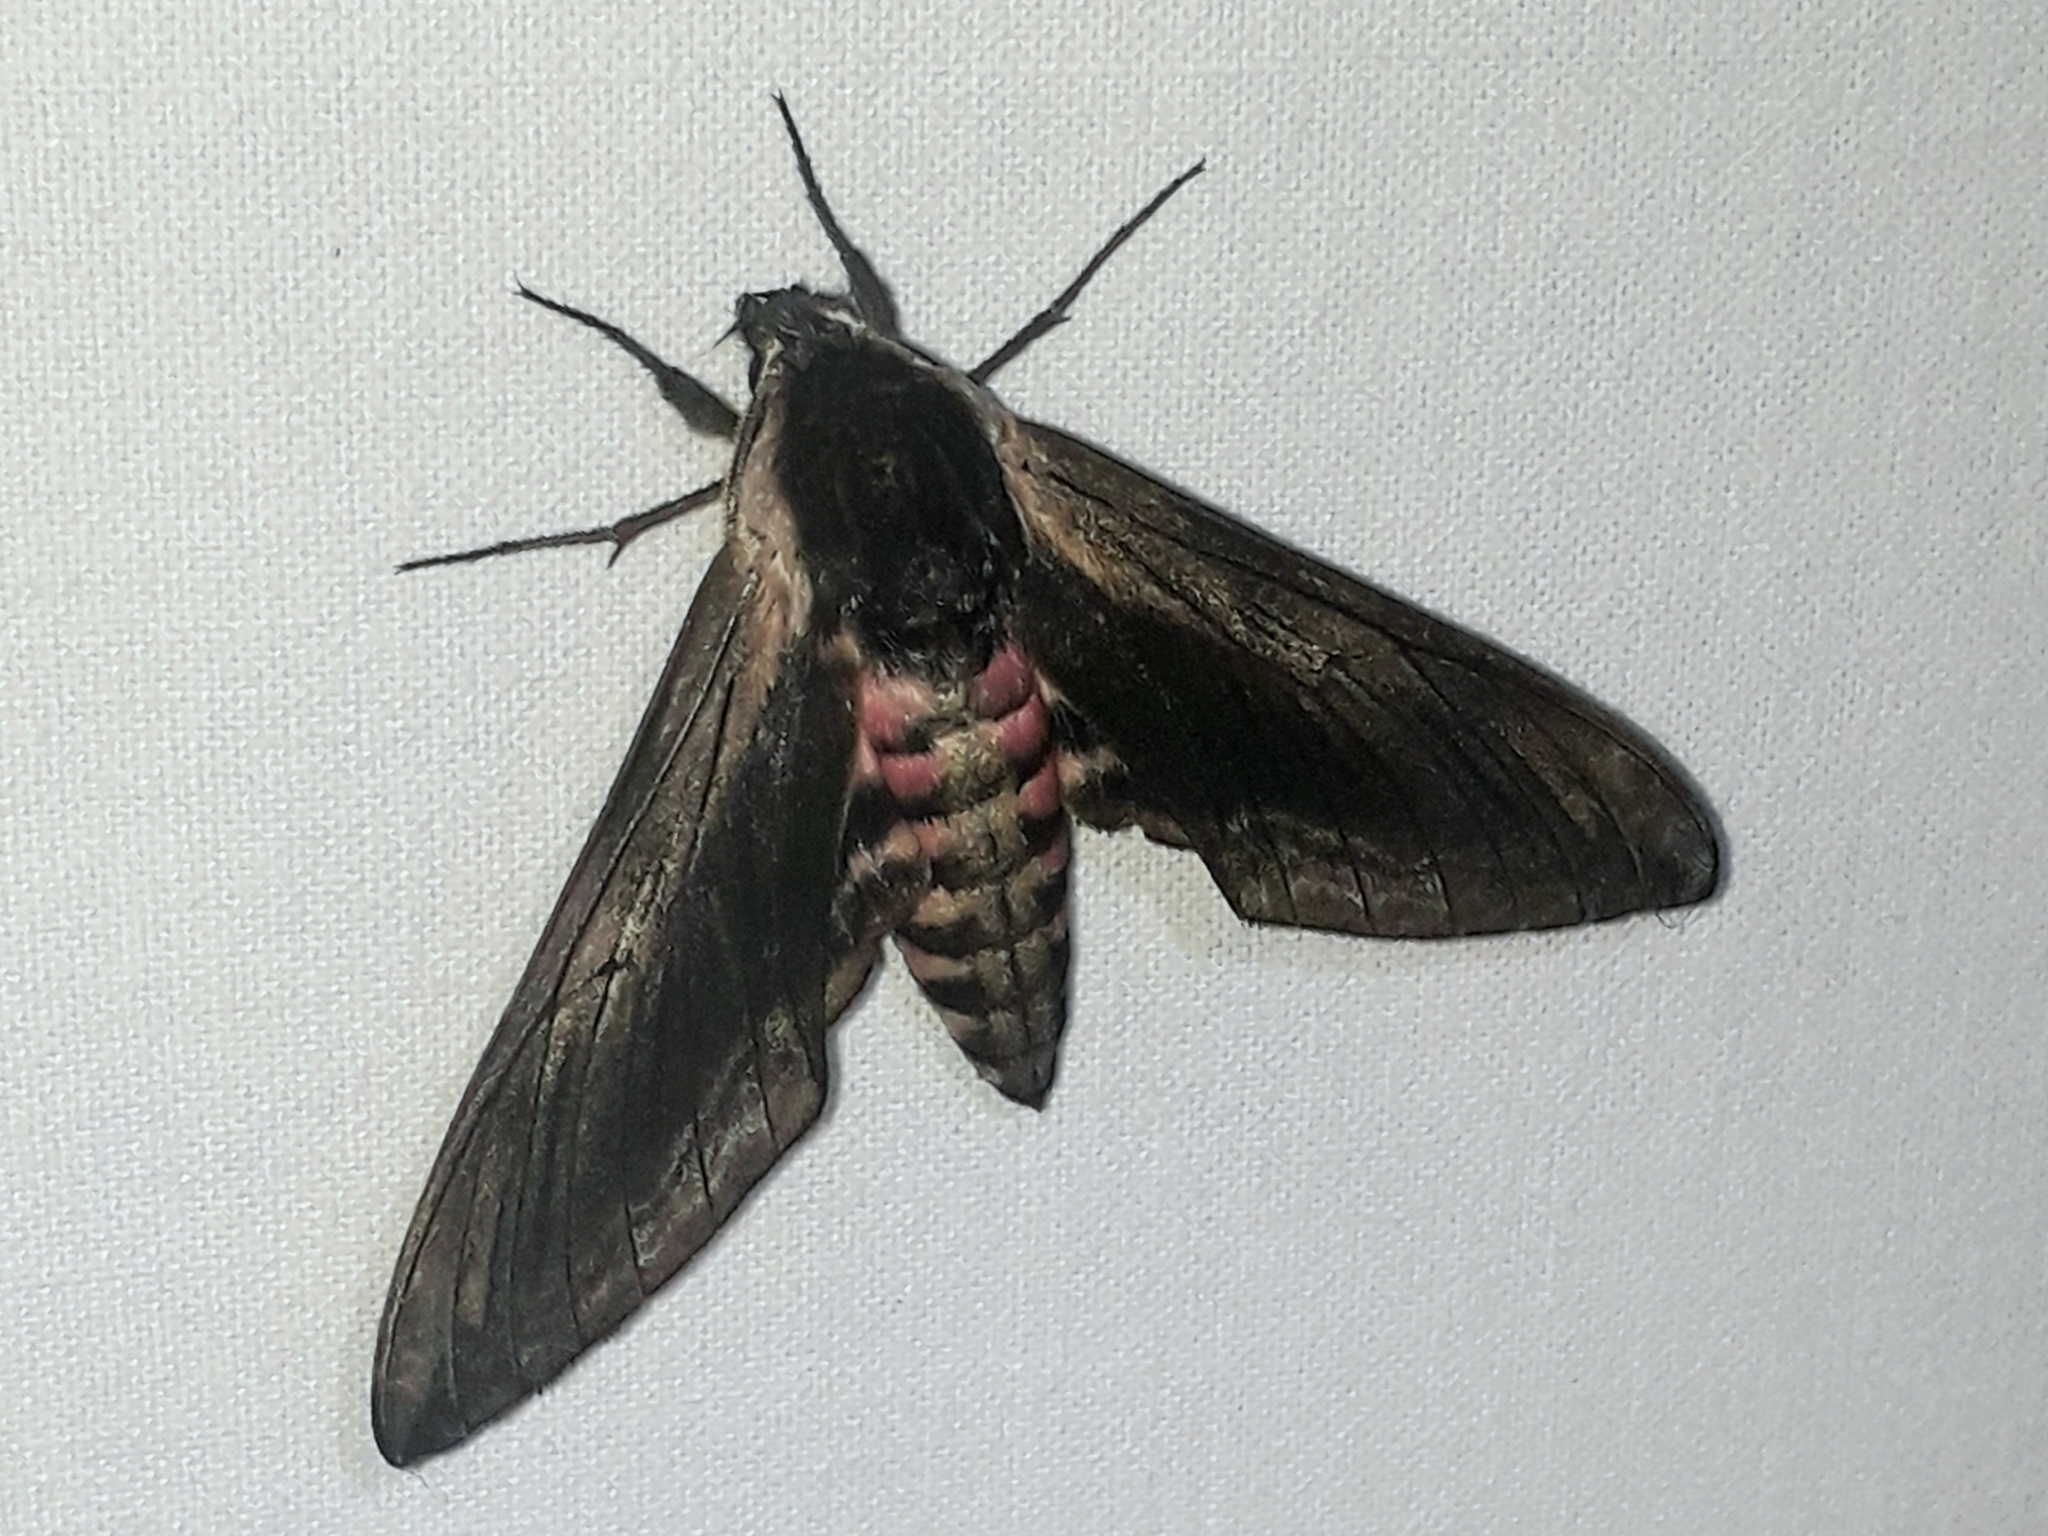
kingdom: Animalia
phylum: Arthropoda
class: Insecta
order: Lepidoptera
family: Sphingidae
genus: Sphinx
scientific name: Sphinx ligustri
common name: Privet hawk-moth
